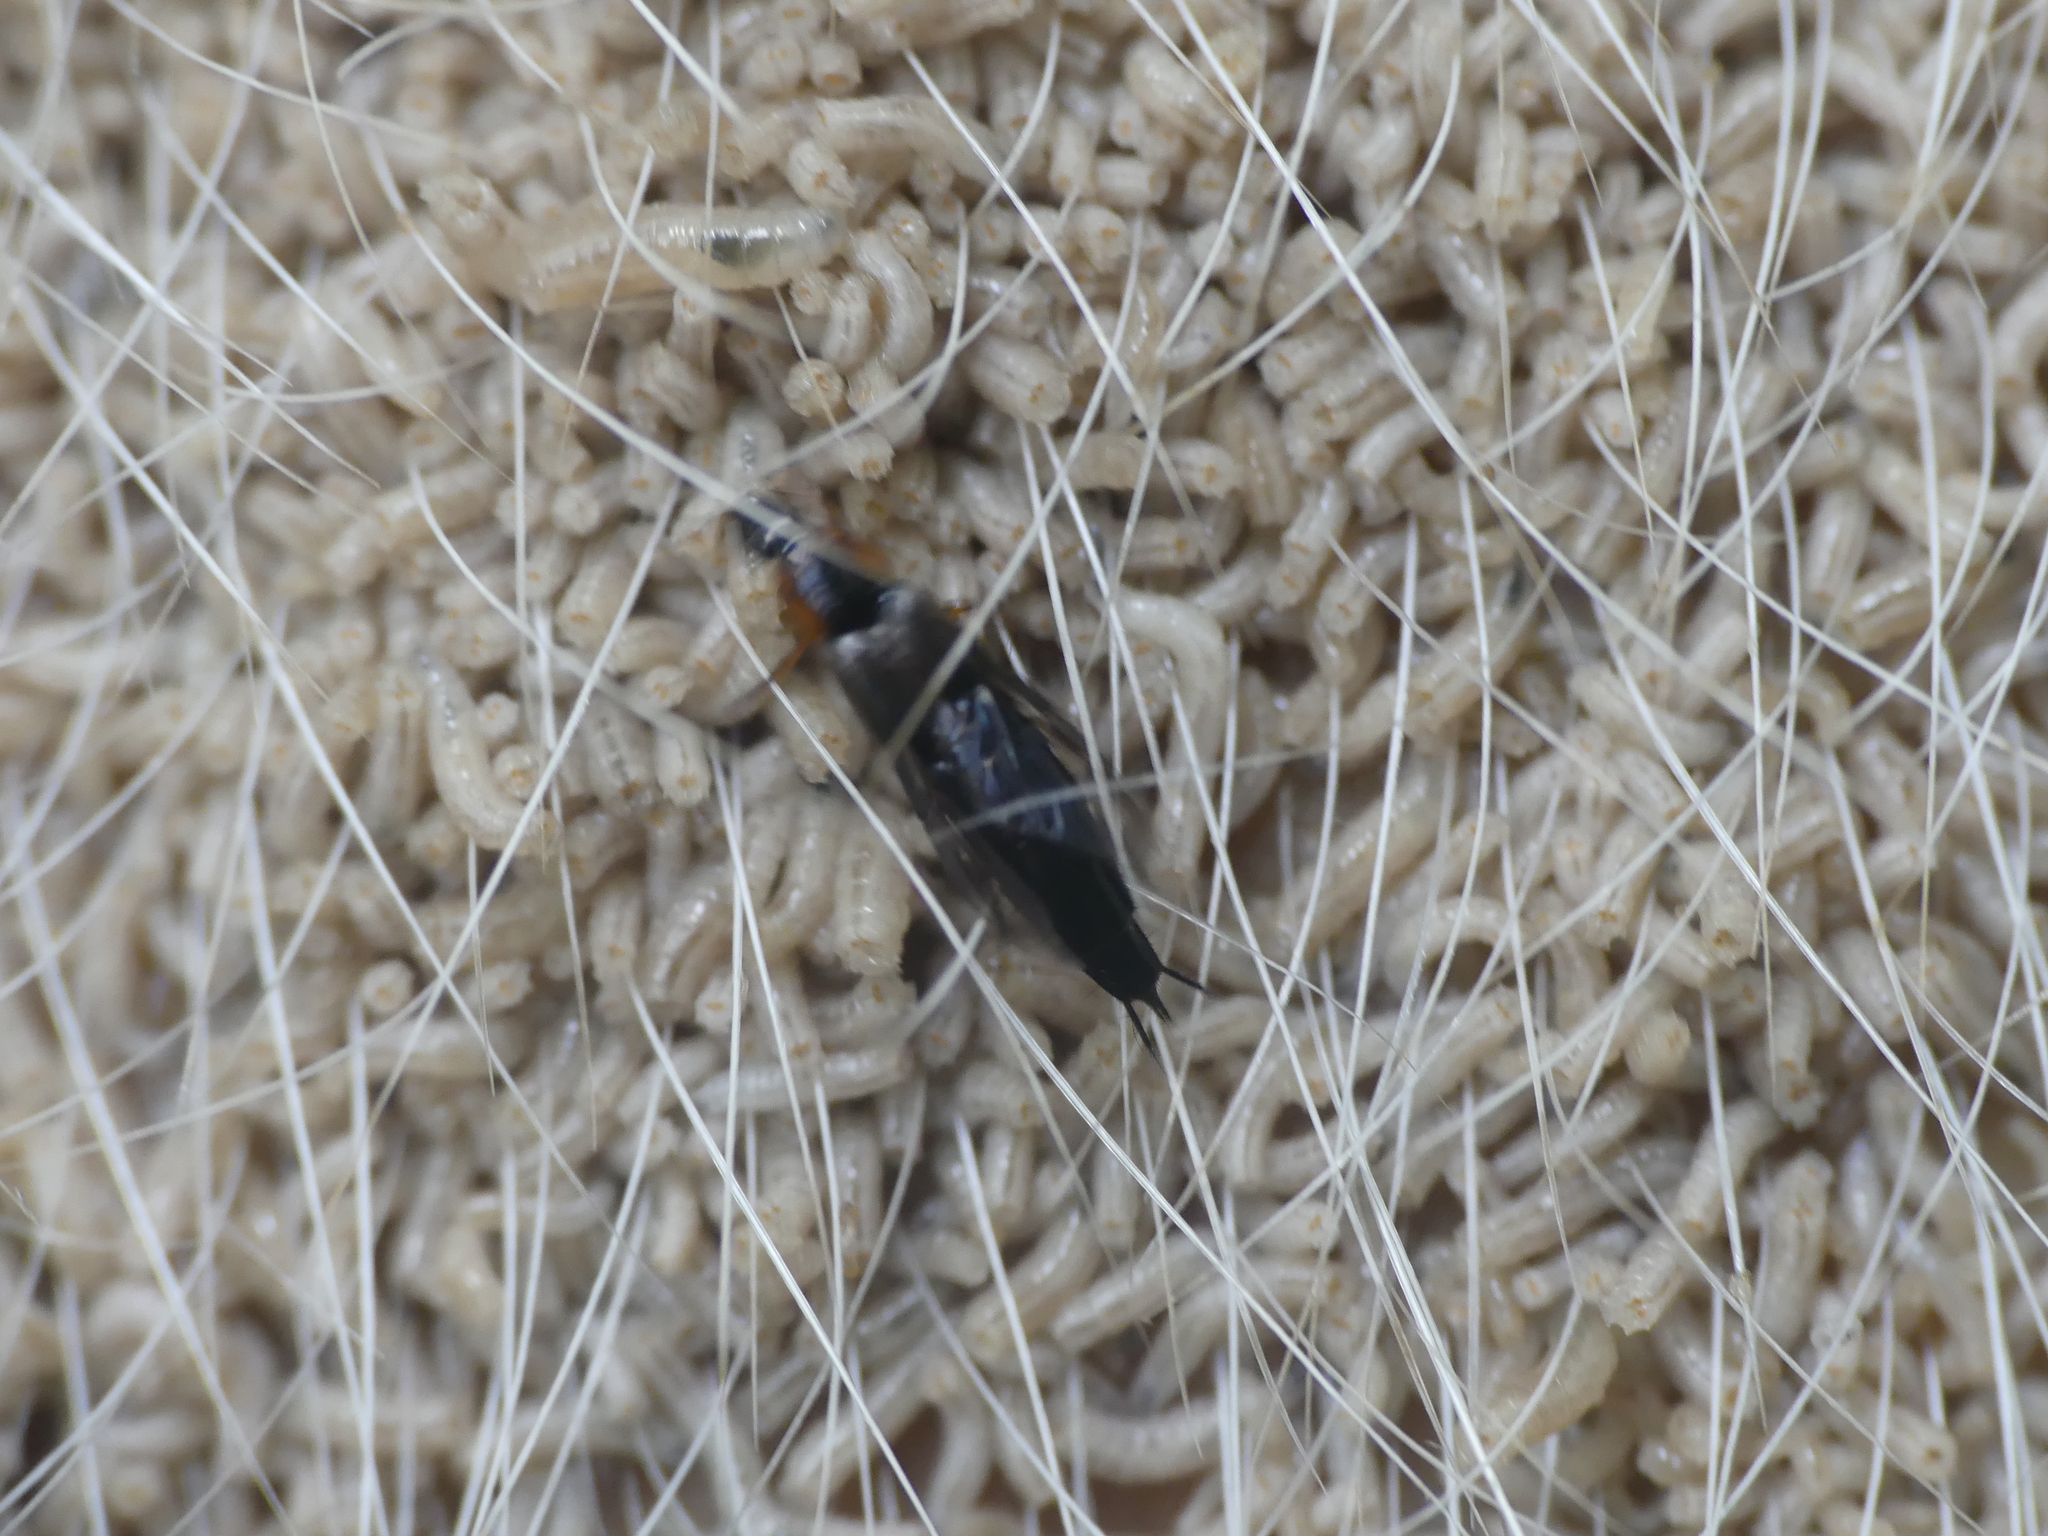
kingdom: Animalia
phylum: Arthropoda
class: Insecta
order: Coleoptera
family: Staphylinidae
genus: Philonthus
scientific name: Philonthus marginatus
